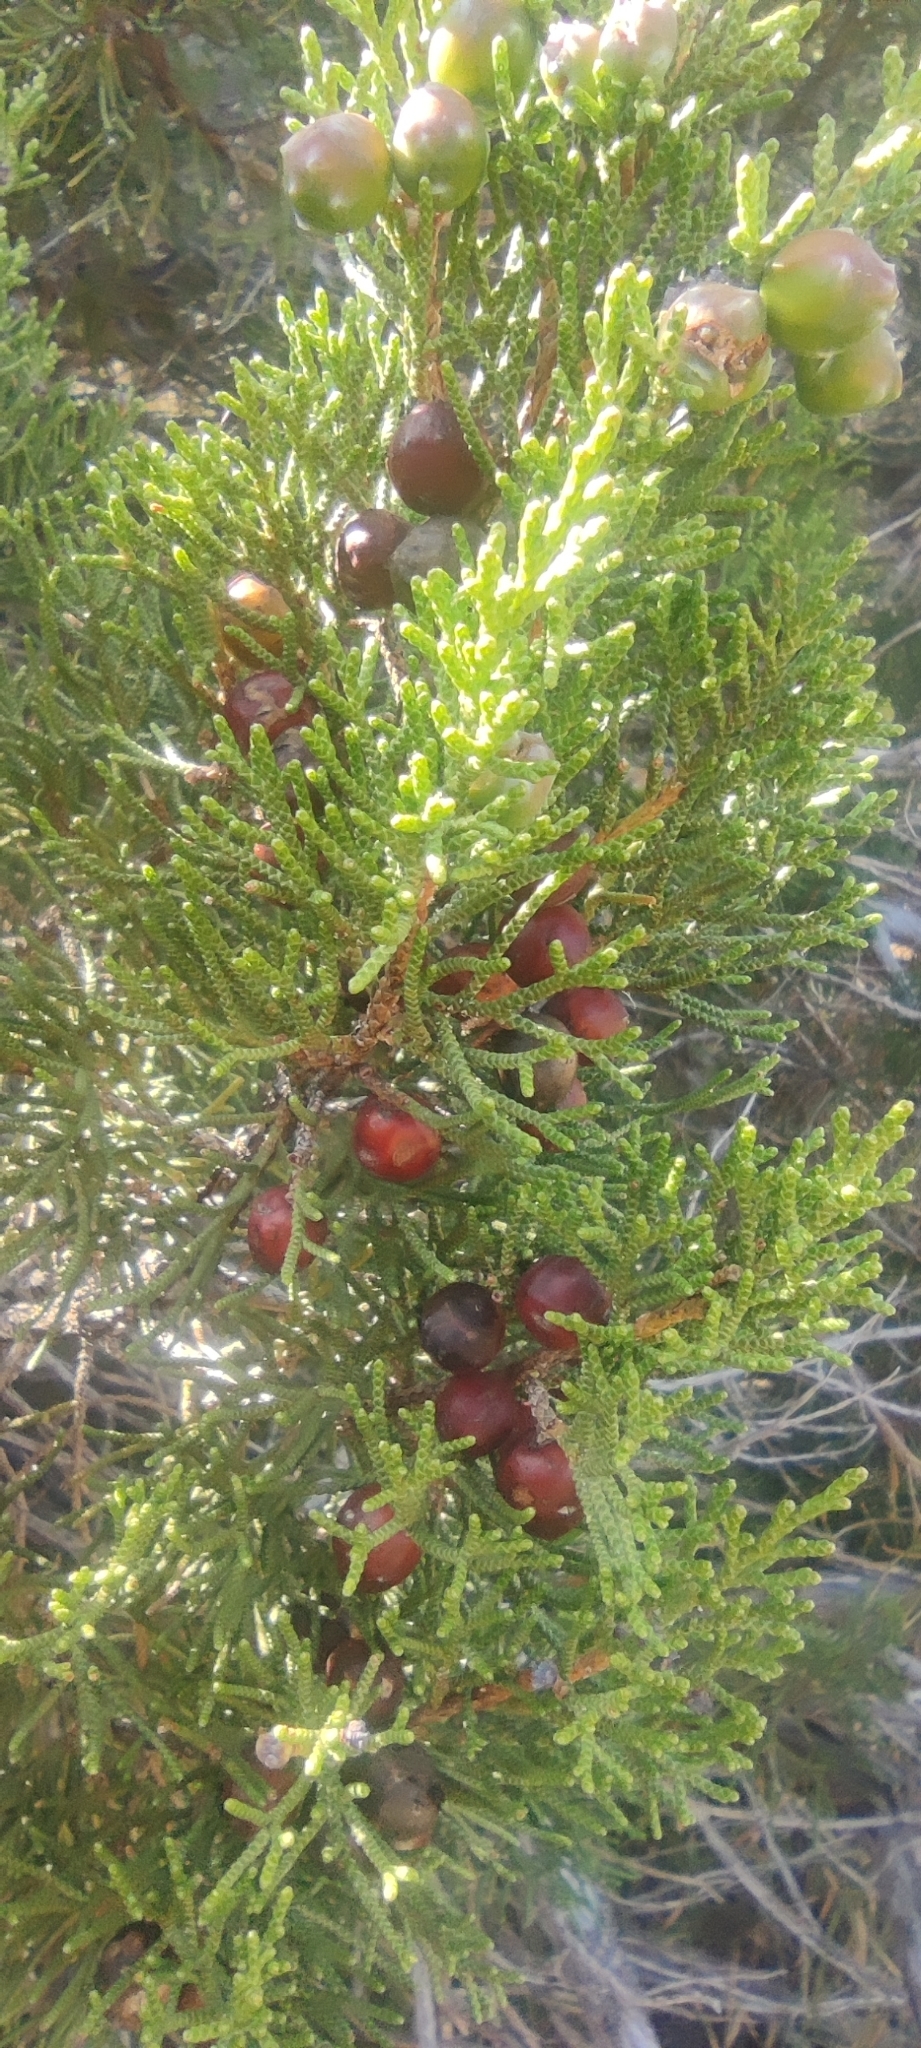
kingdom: Plantae
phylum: Tracheophyta
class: Pinopsida
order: Pinales
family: Cupressaceae
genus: Juniperus
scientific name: Juniperus phoenicea
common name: Phoenician juniper
